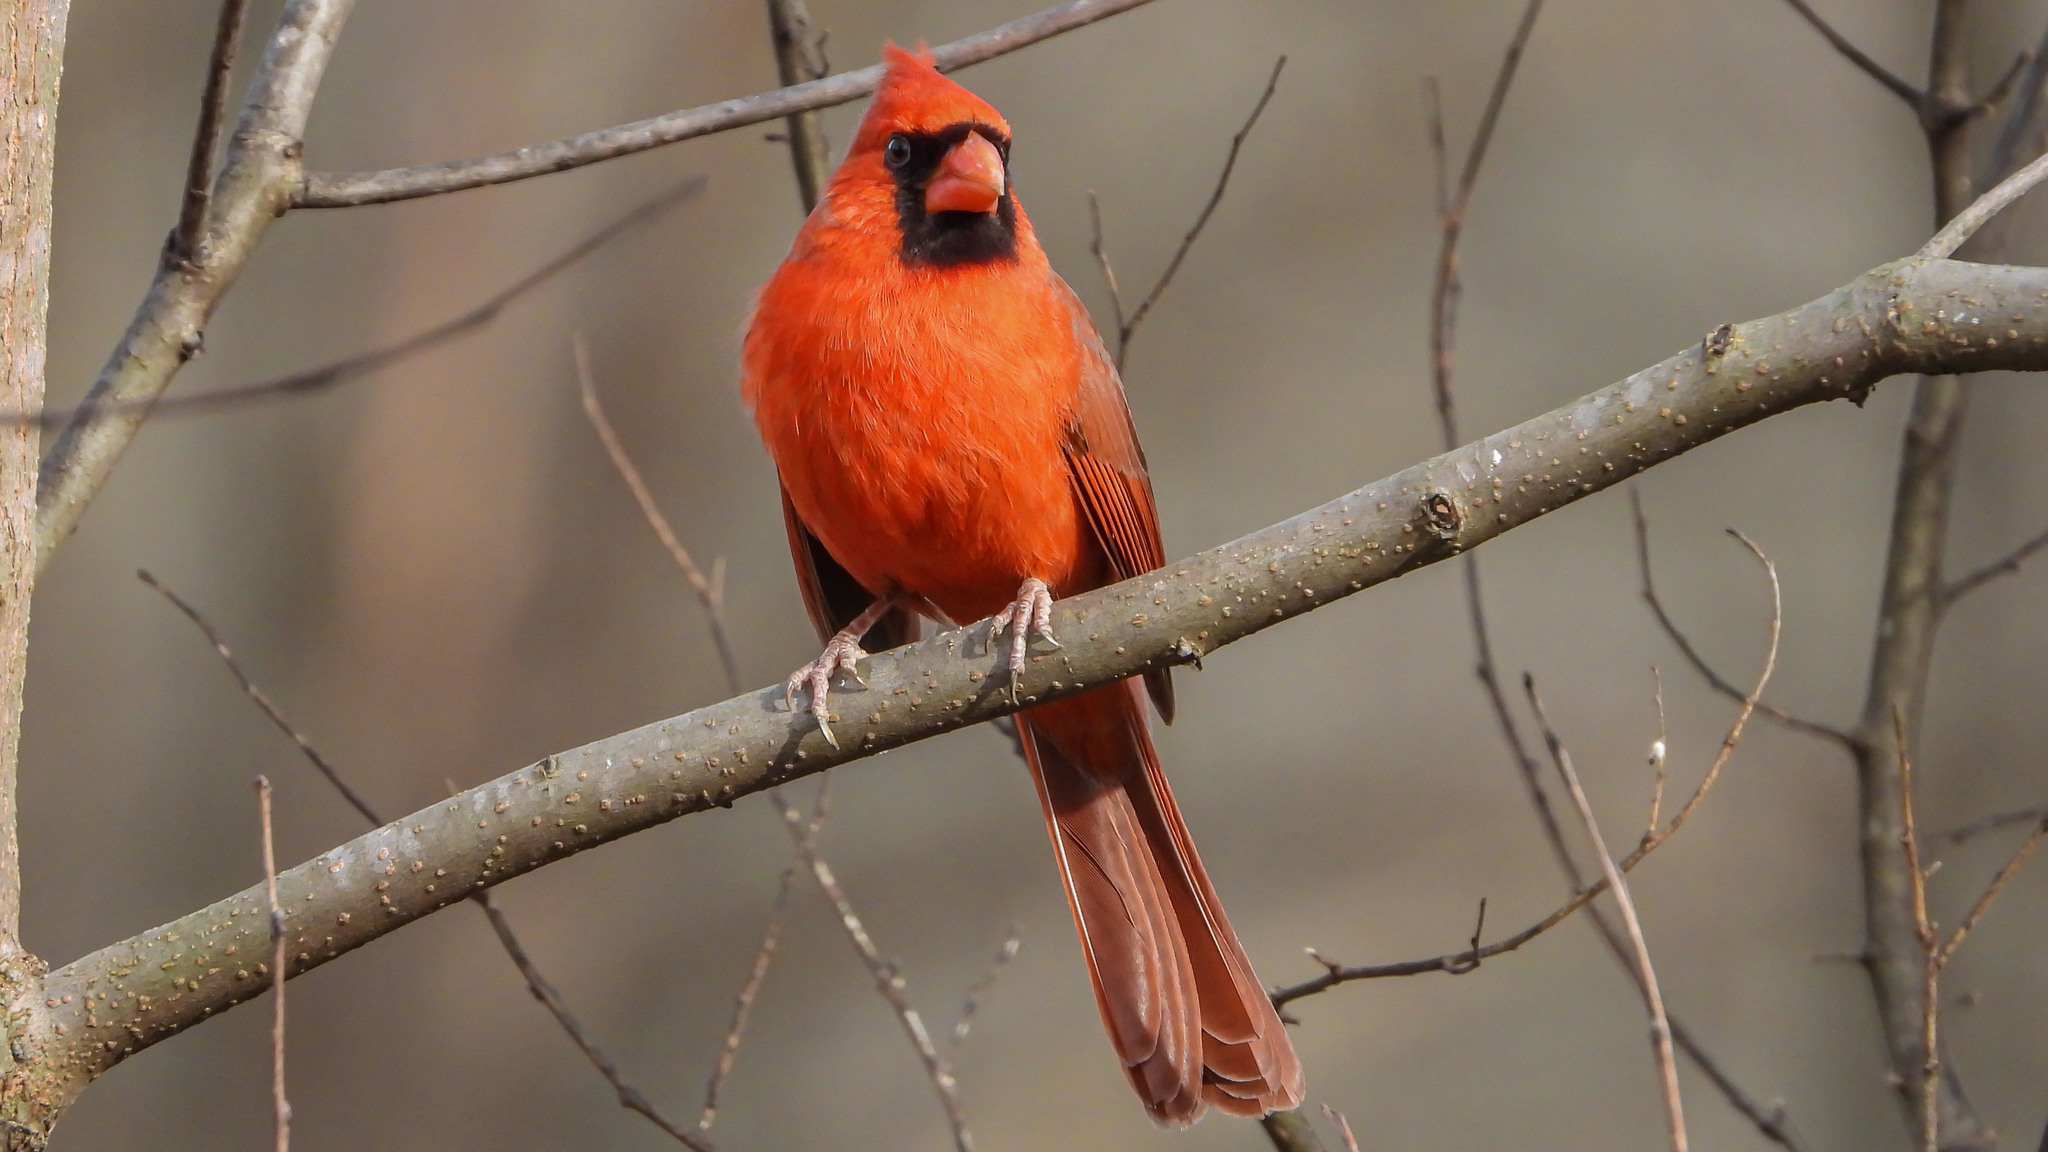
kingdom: Animalia
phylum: Chordata
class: Aves
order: Passeriformes
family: Cardinalidae
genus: Cardinalis
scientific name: Cardinalis cardinalis
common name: Northern cardinal
